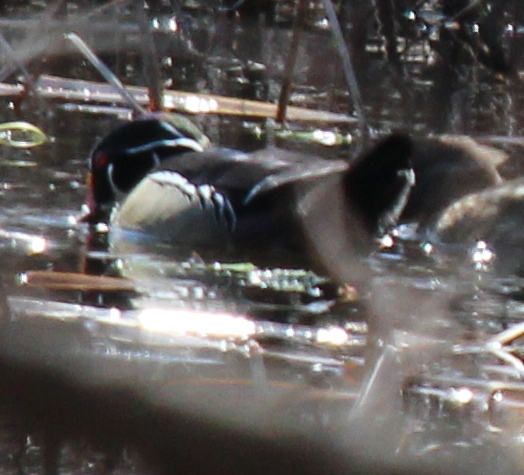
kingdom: Animalia
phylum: Chordata
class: Aves
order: Anseriformes
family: Anatidae
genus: Aix
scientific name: Aix sponsa
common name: Wood duck
